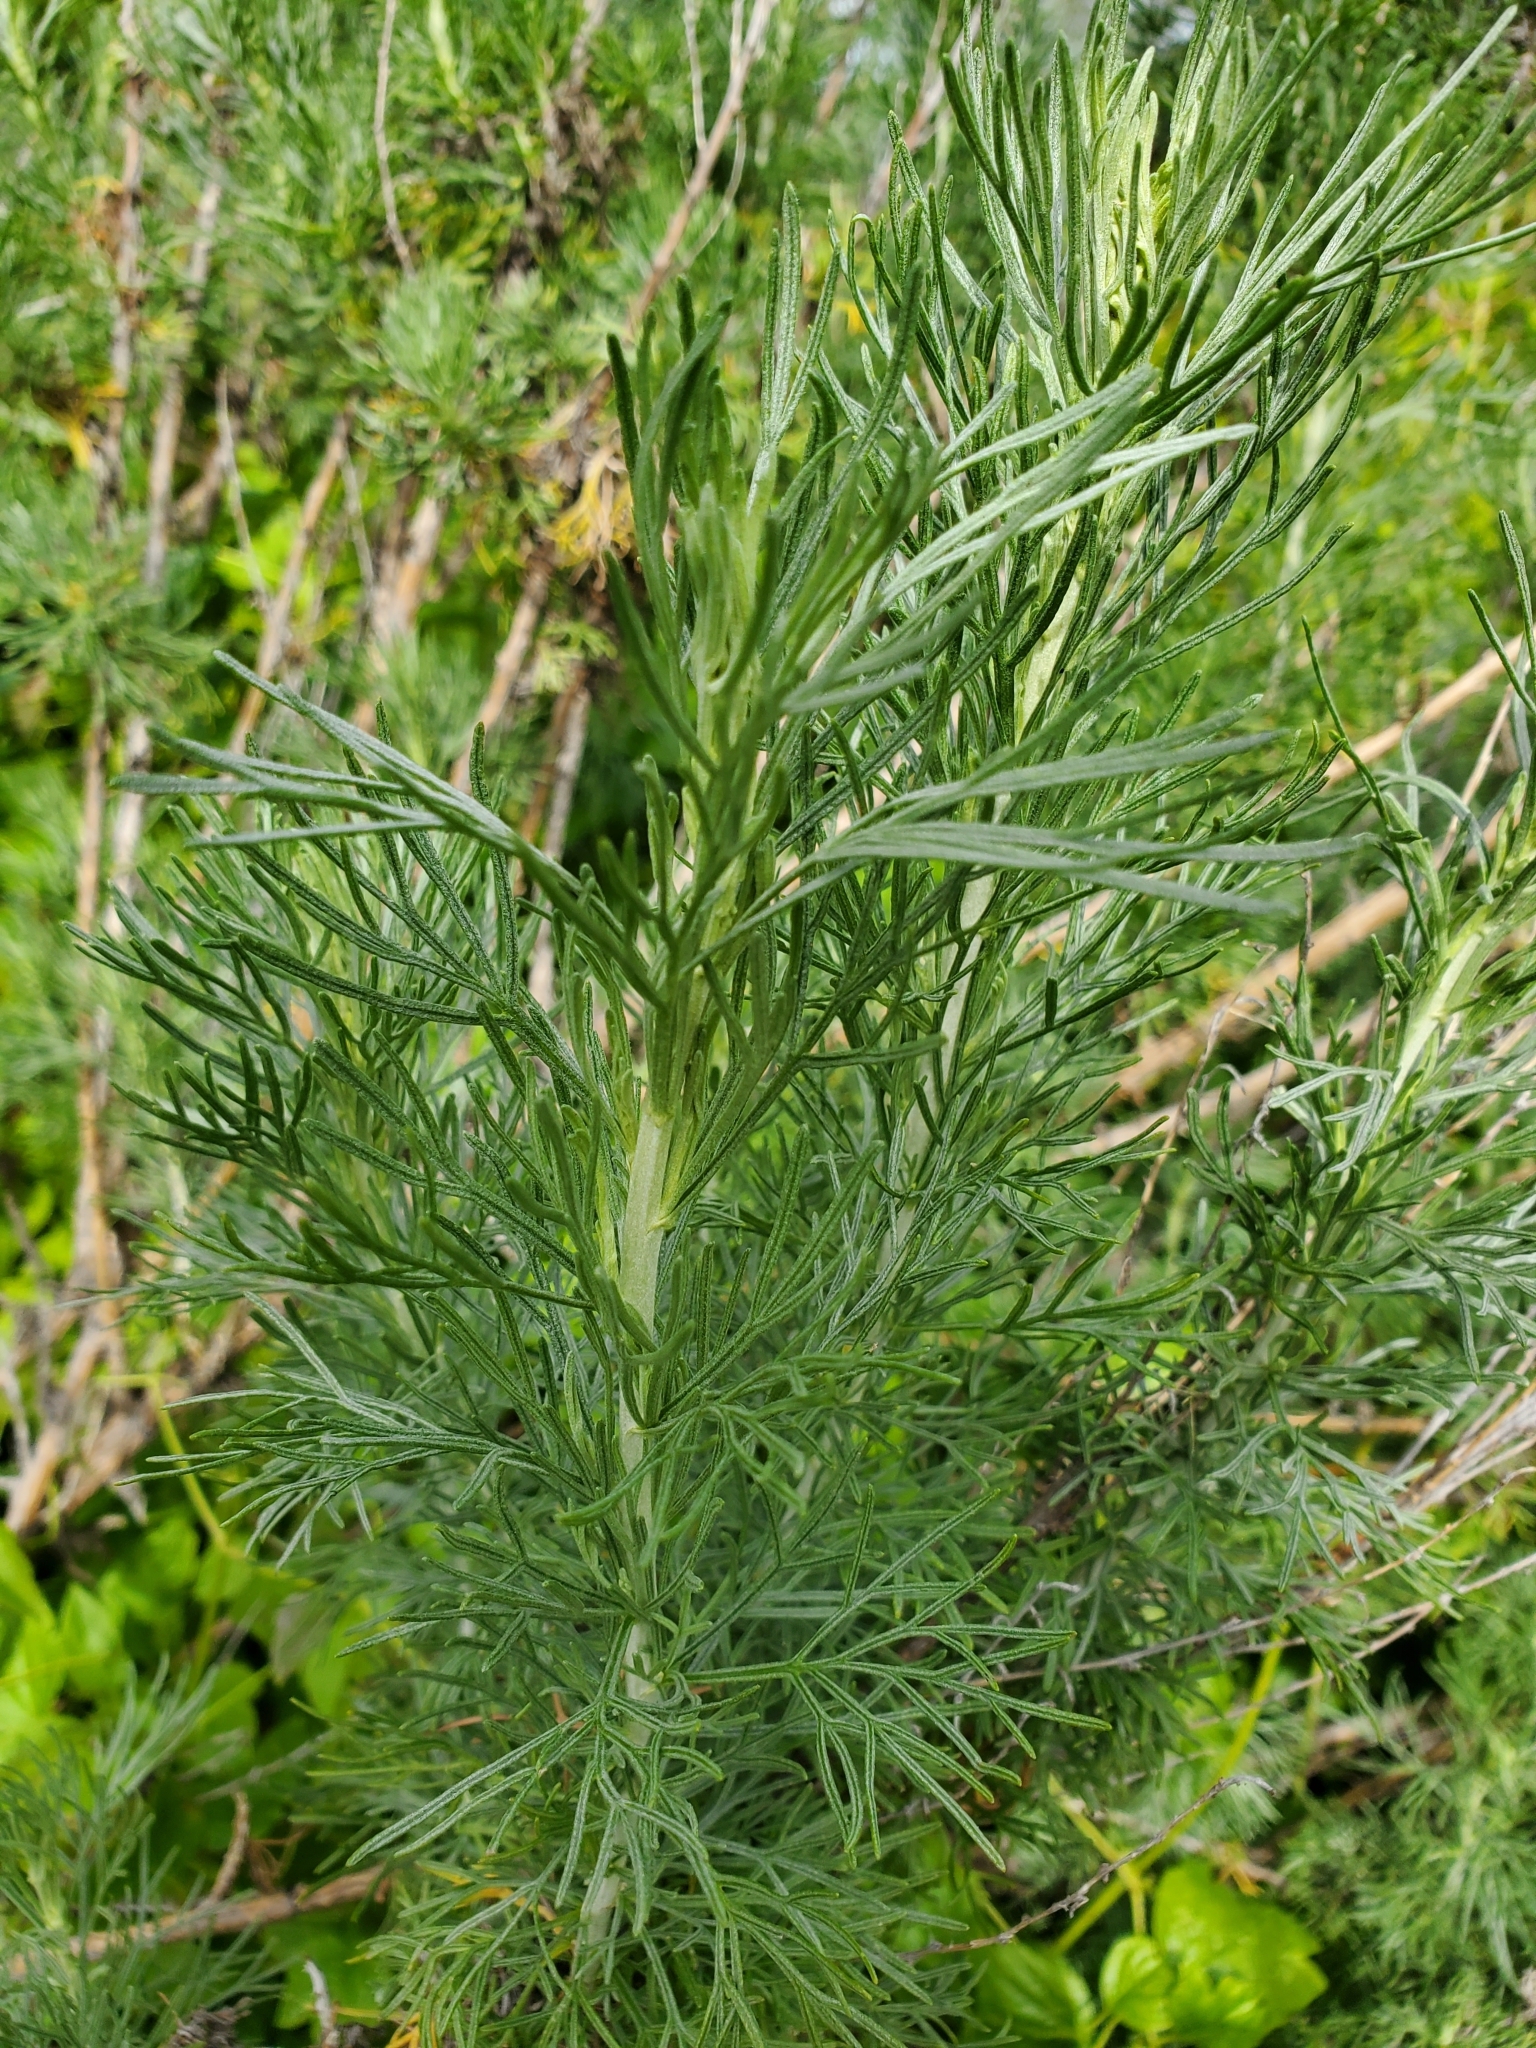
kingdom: Plantae
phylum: Tracheophyta
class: Magnoliopsida
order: Asterales
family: Asteraceae
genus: Artemisia
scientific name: Artemisia californica
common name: California sagebrush
